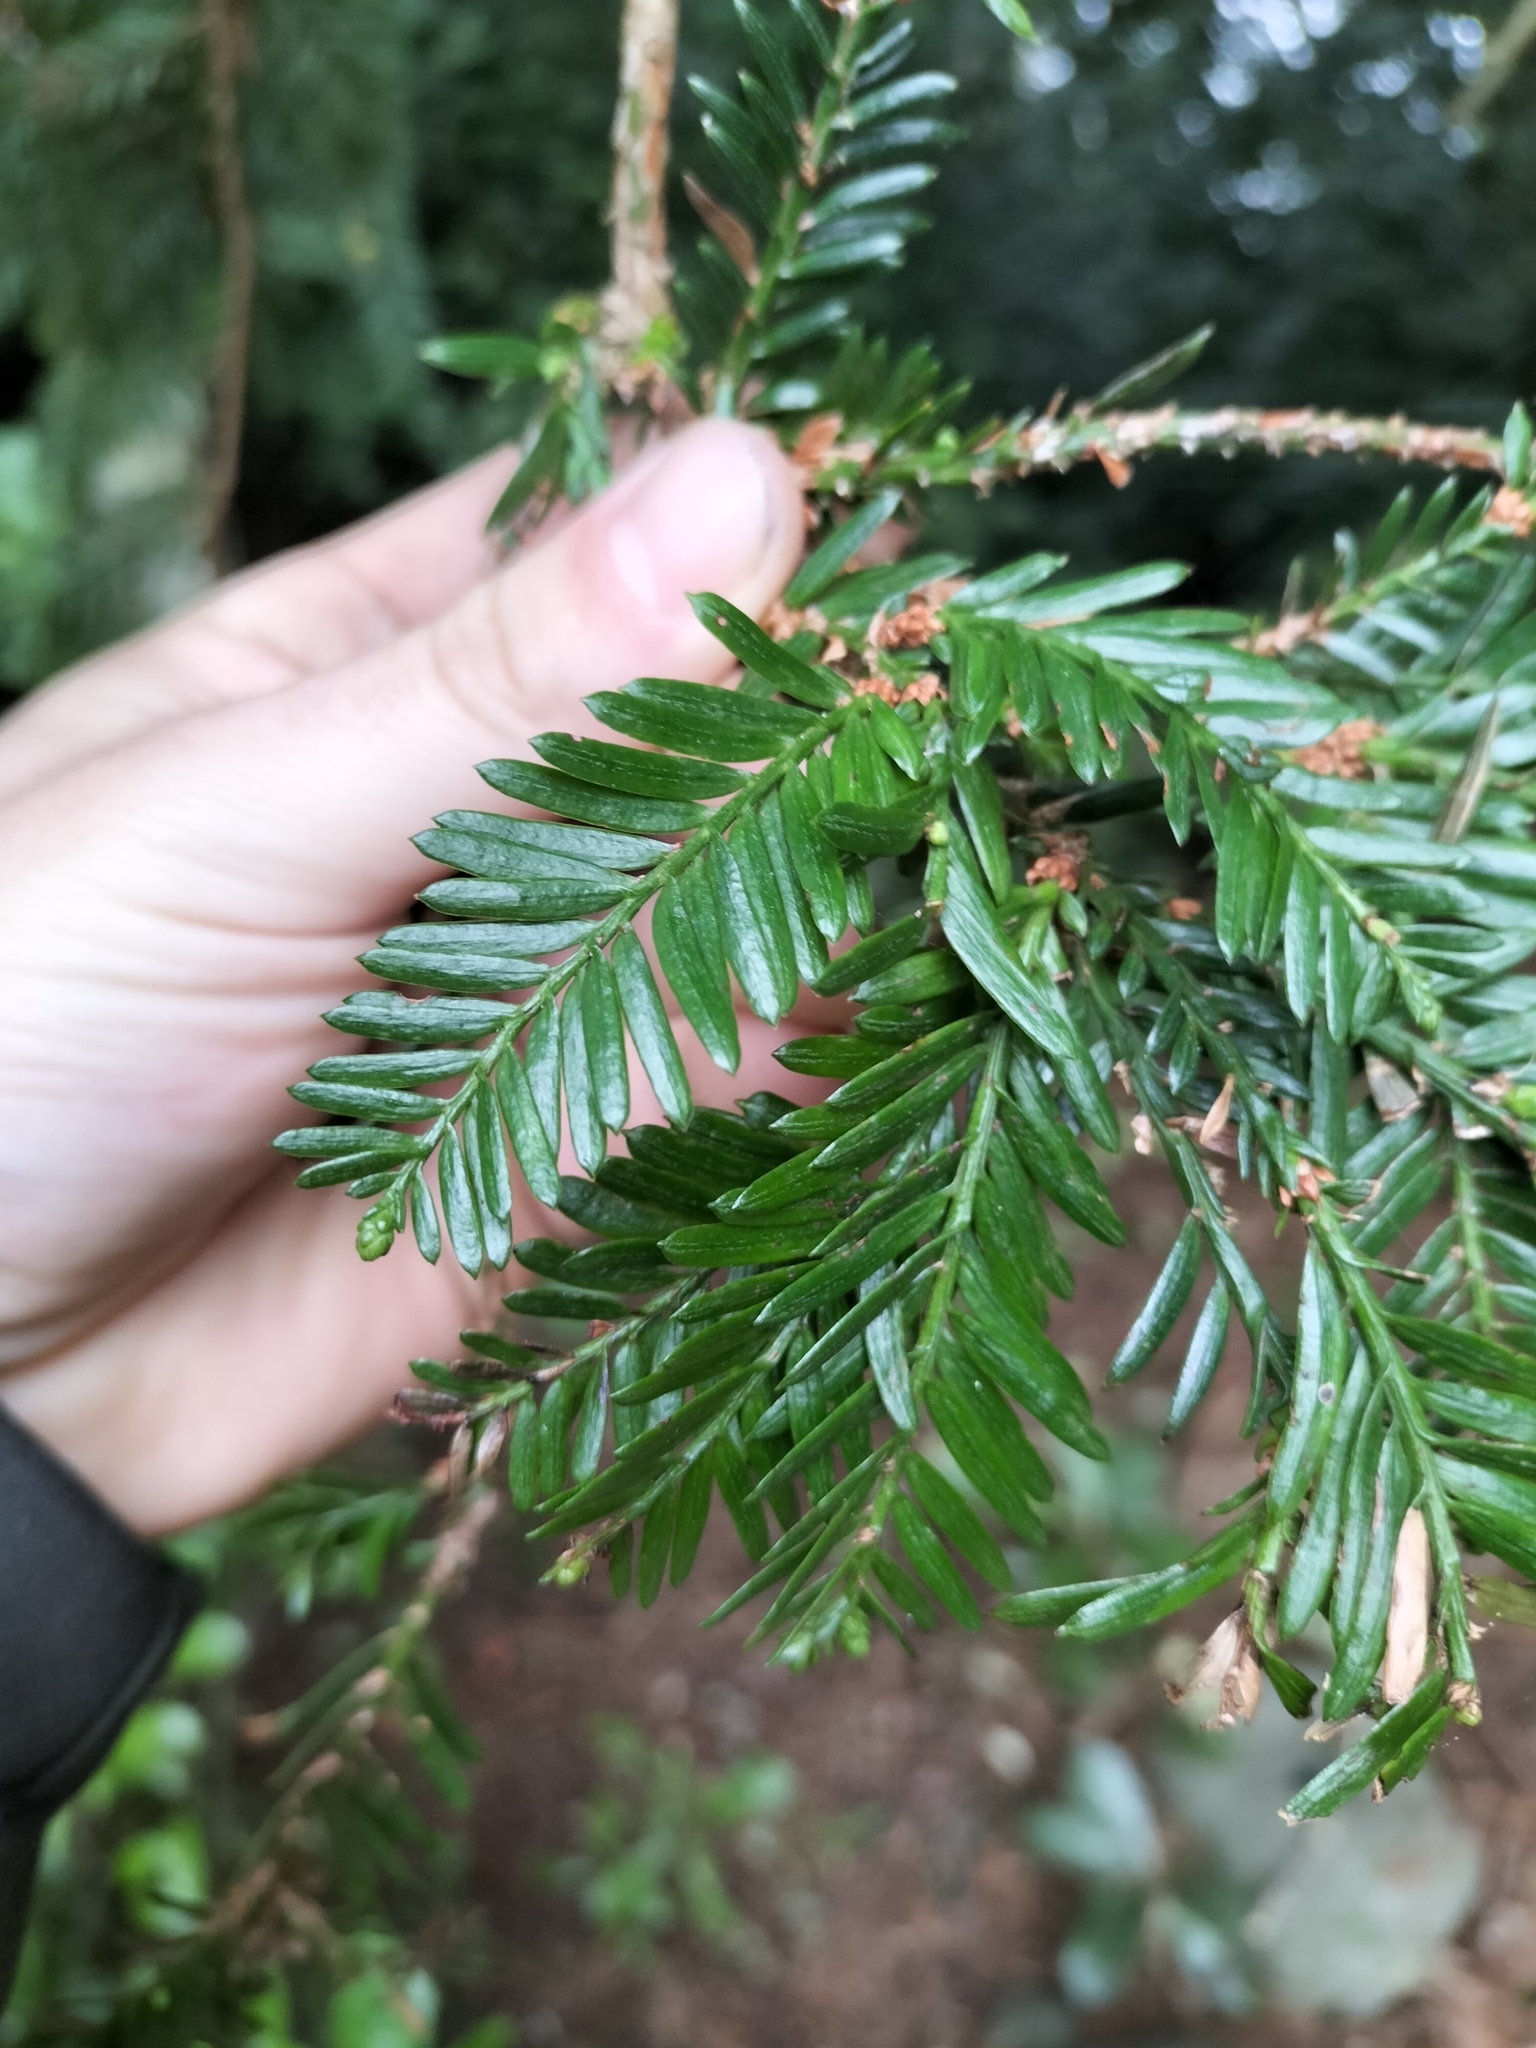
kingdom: Plantae
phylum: Tracheophyta
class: Pinopsida
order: Pinales
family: Cupressaceae
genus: Sequoia
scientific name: Sequoia sempervirens
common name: Coast redwood
